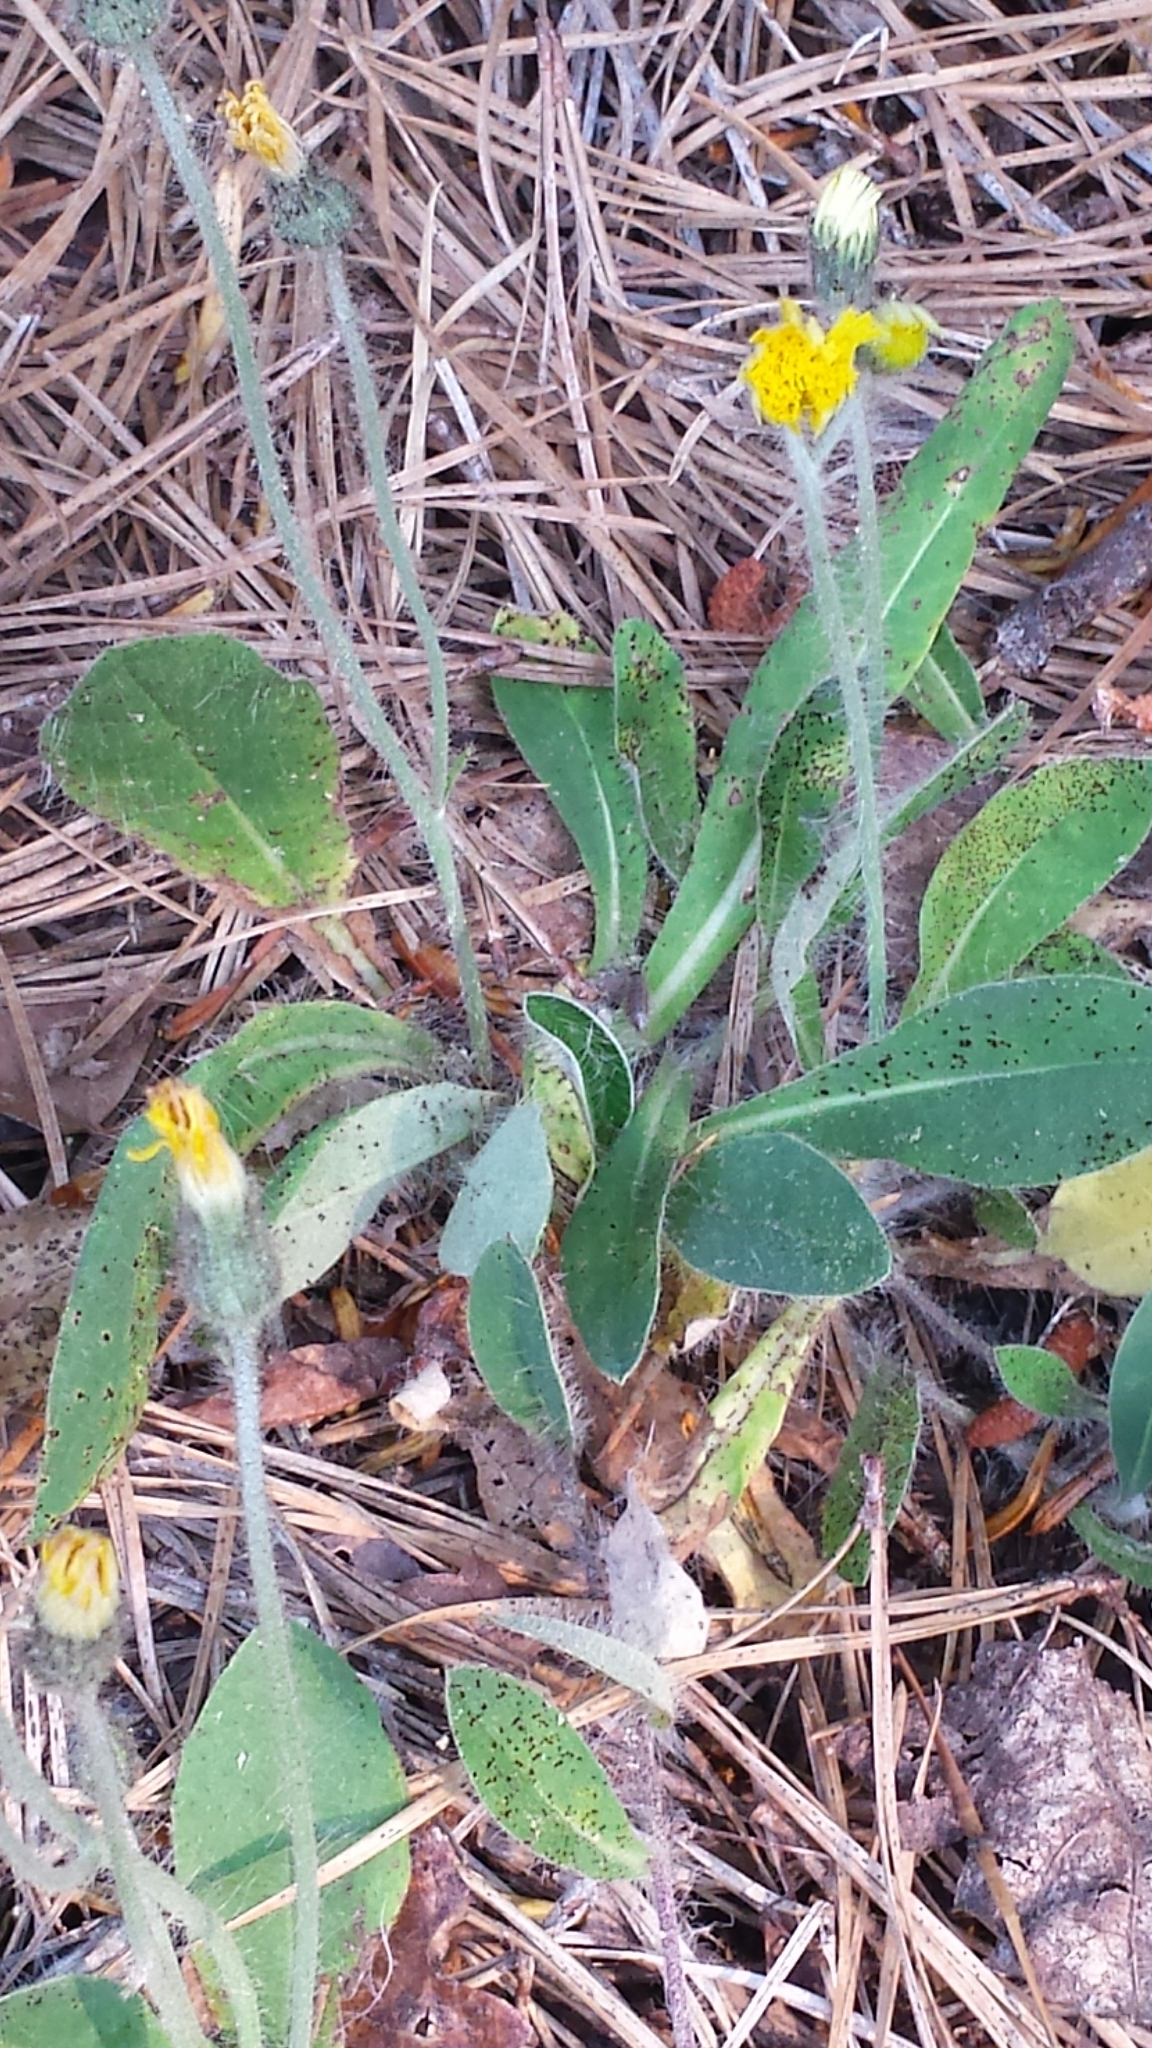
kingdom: Plantae
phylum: Tracheophyta
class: Magnoliopsida
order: Asterales
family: Asteraceae
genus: Pilosella
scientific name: Pilosella officinarum
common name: Mouse-ear hawkweed
